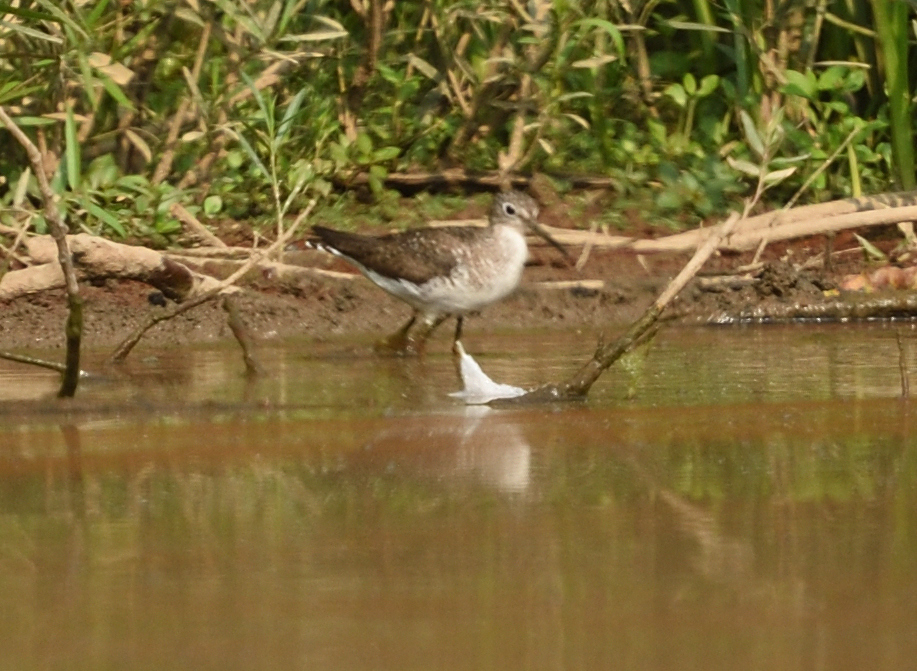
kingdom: Animalia
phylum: Chordata
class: Aves
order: Charadriiformes
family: Scolopacidae
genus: Tringa
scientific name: Tringa solitaria
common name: Solitary sandpiper
